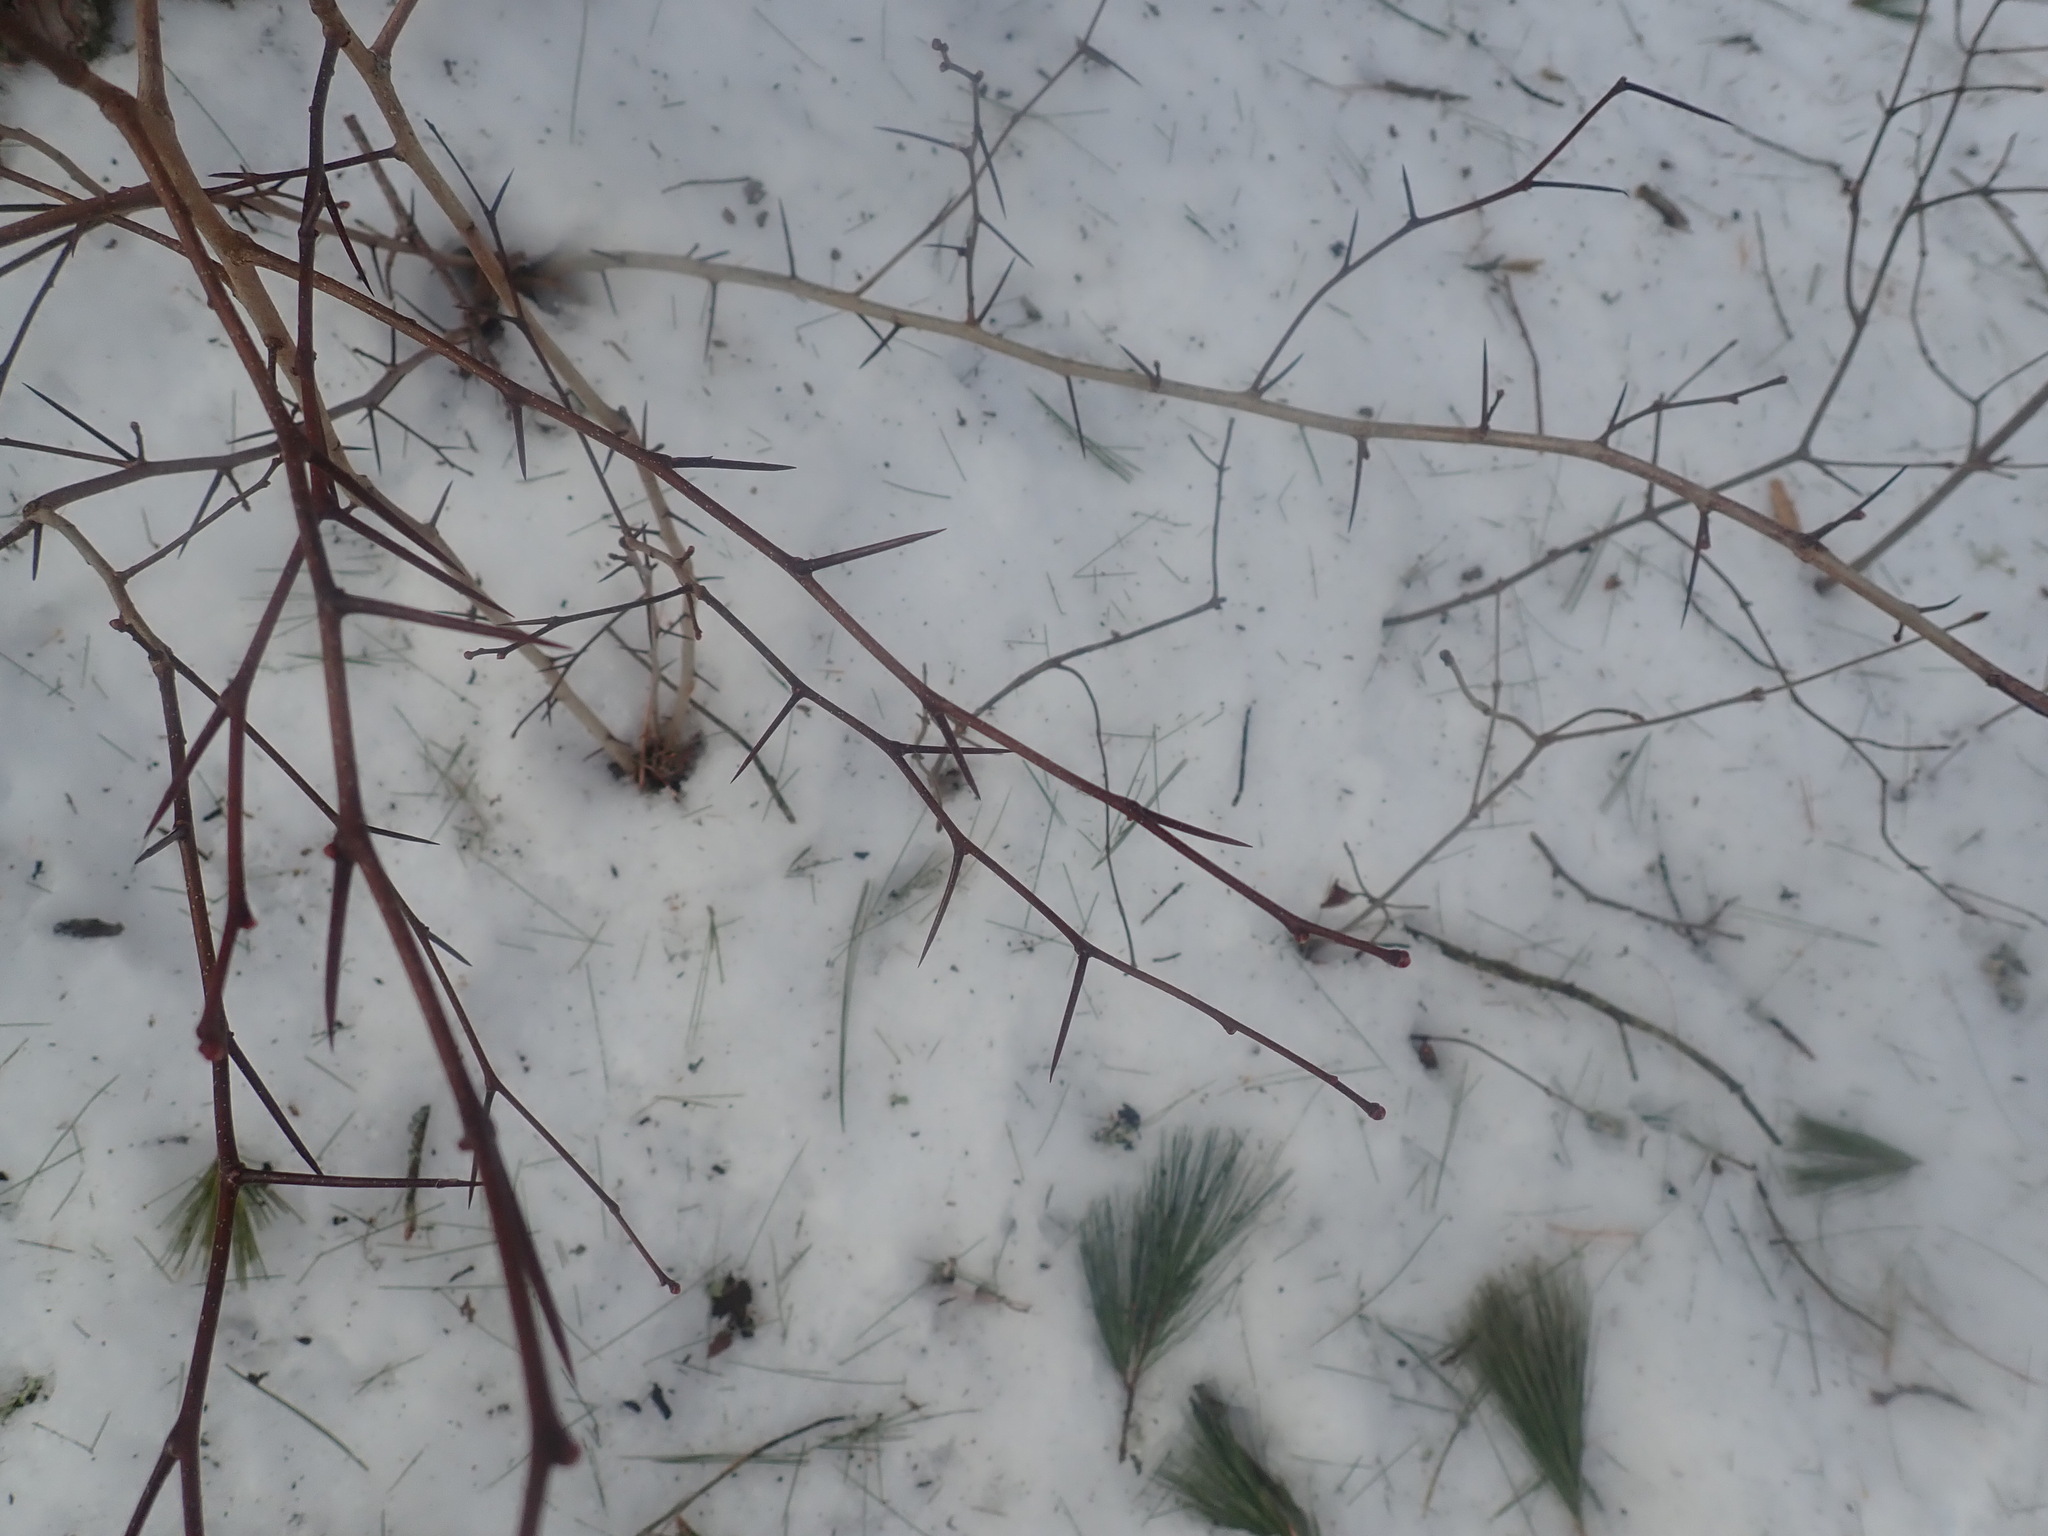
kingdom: Plantae
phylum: Tracheophyta
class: Magnoliopsida
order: Rosales
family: Rosaceae
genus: Crataegus
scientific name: Crataegus
